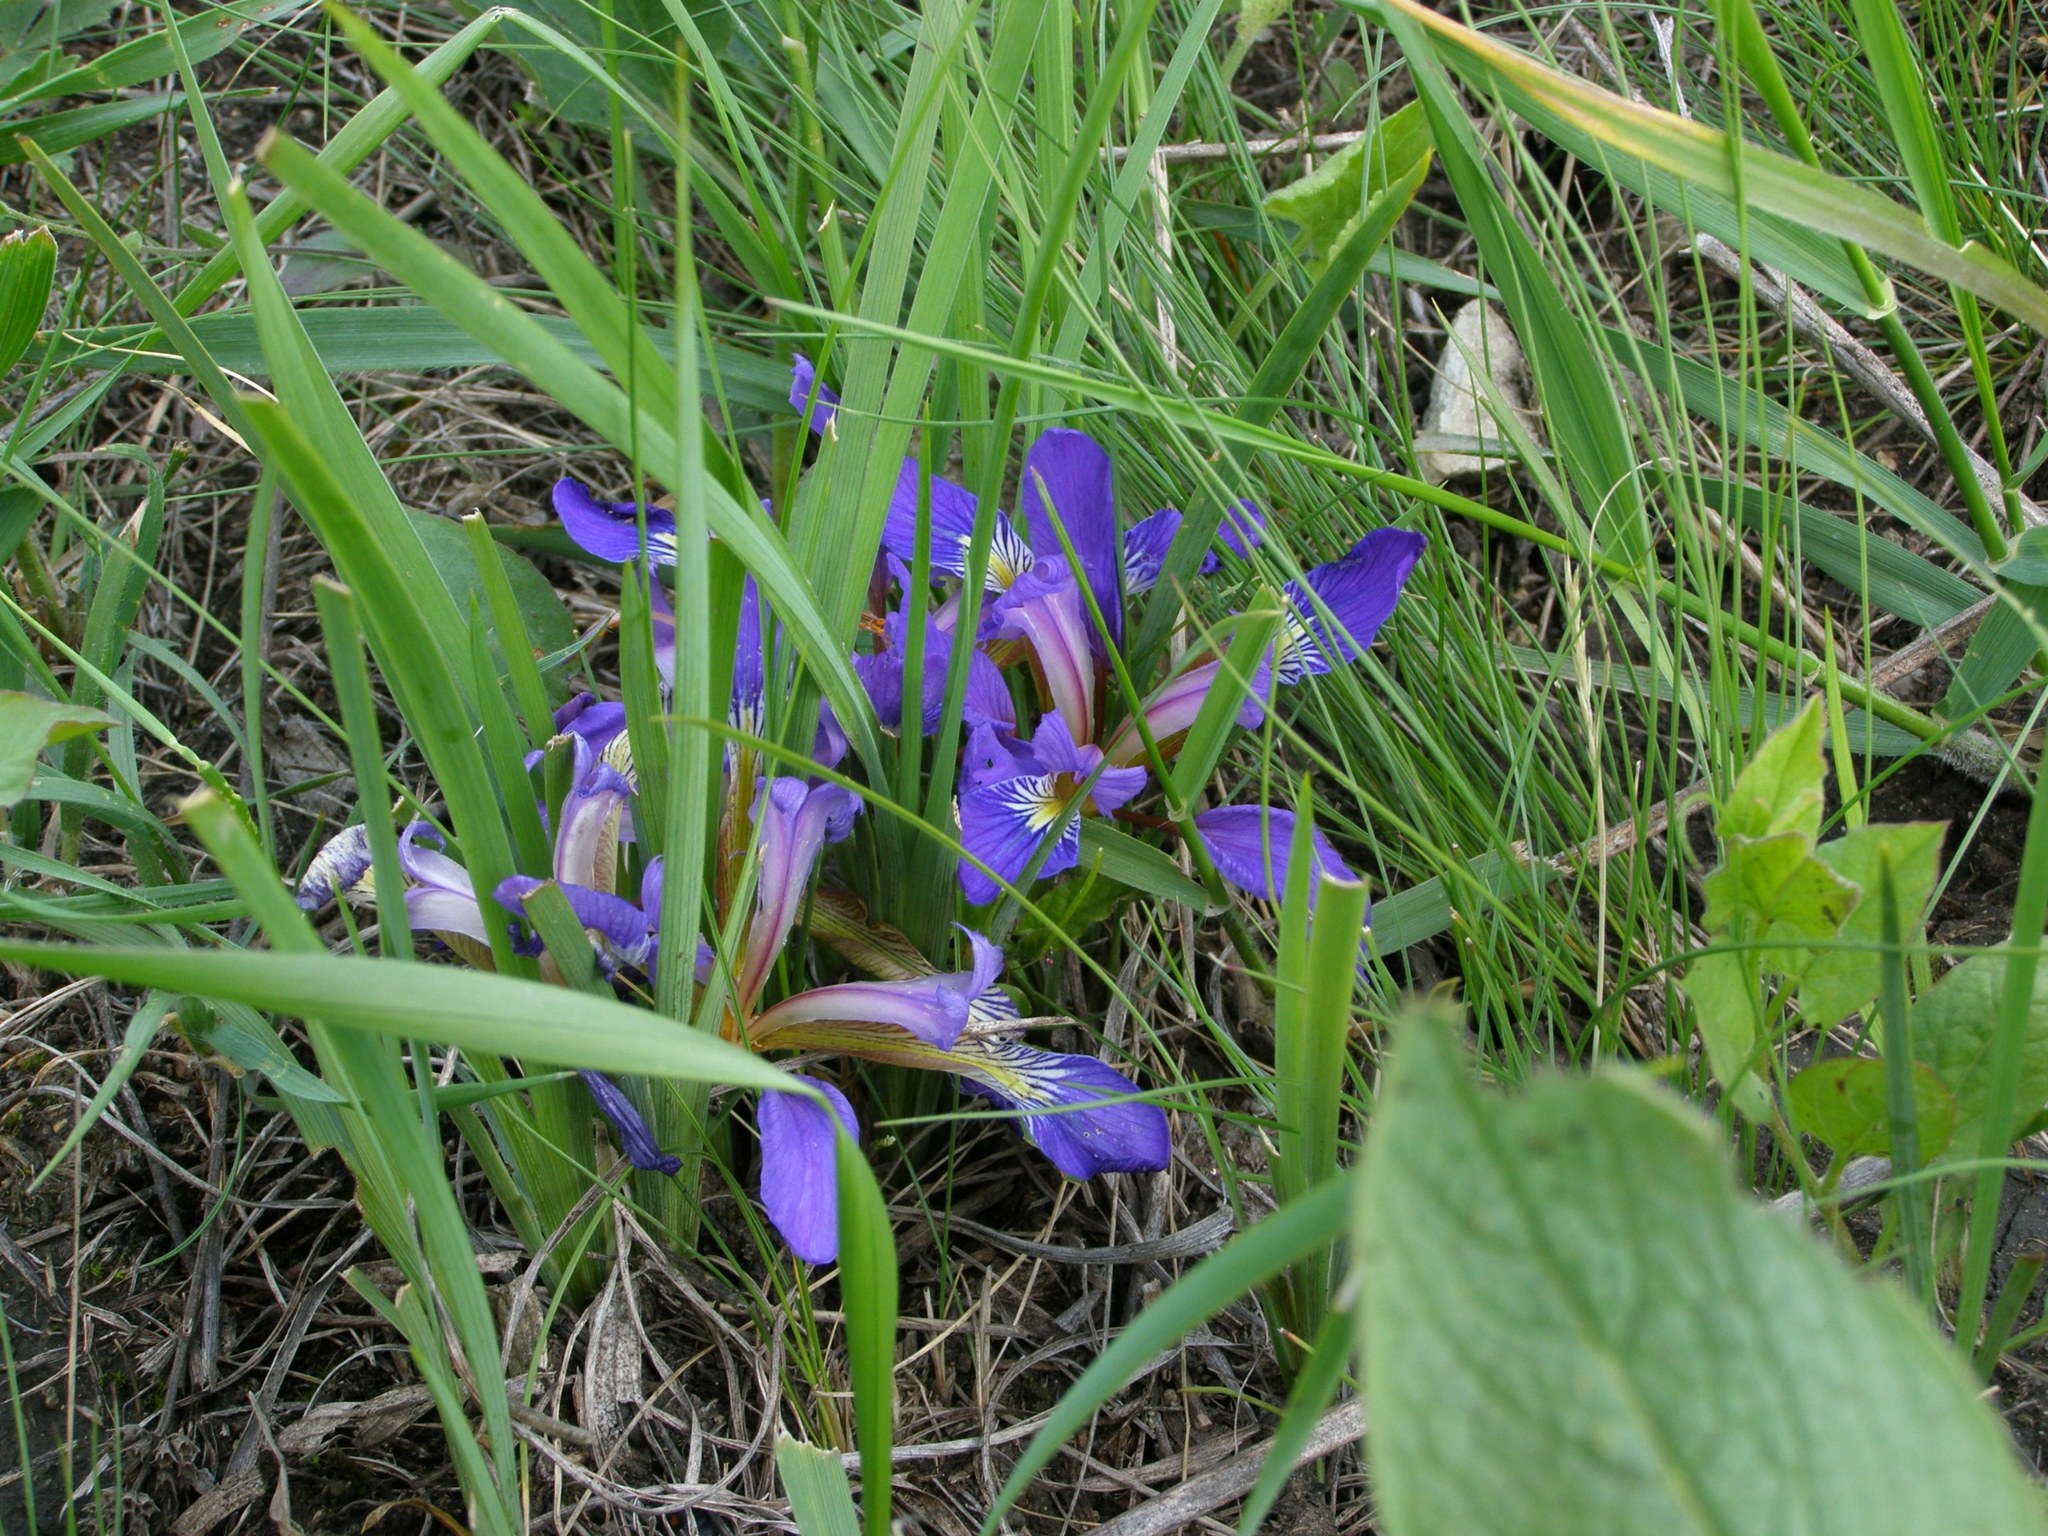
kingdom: Plantae
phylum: Tracheophyta
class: Liliopsida
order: Asparagales
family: Iridaceae
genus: Iris
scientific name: Iris pontica
